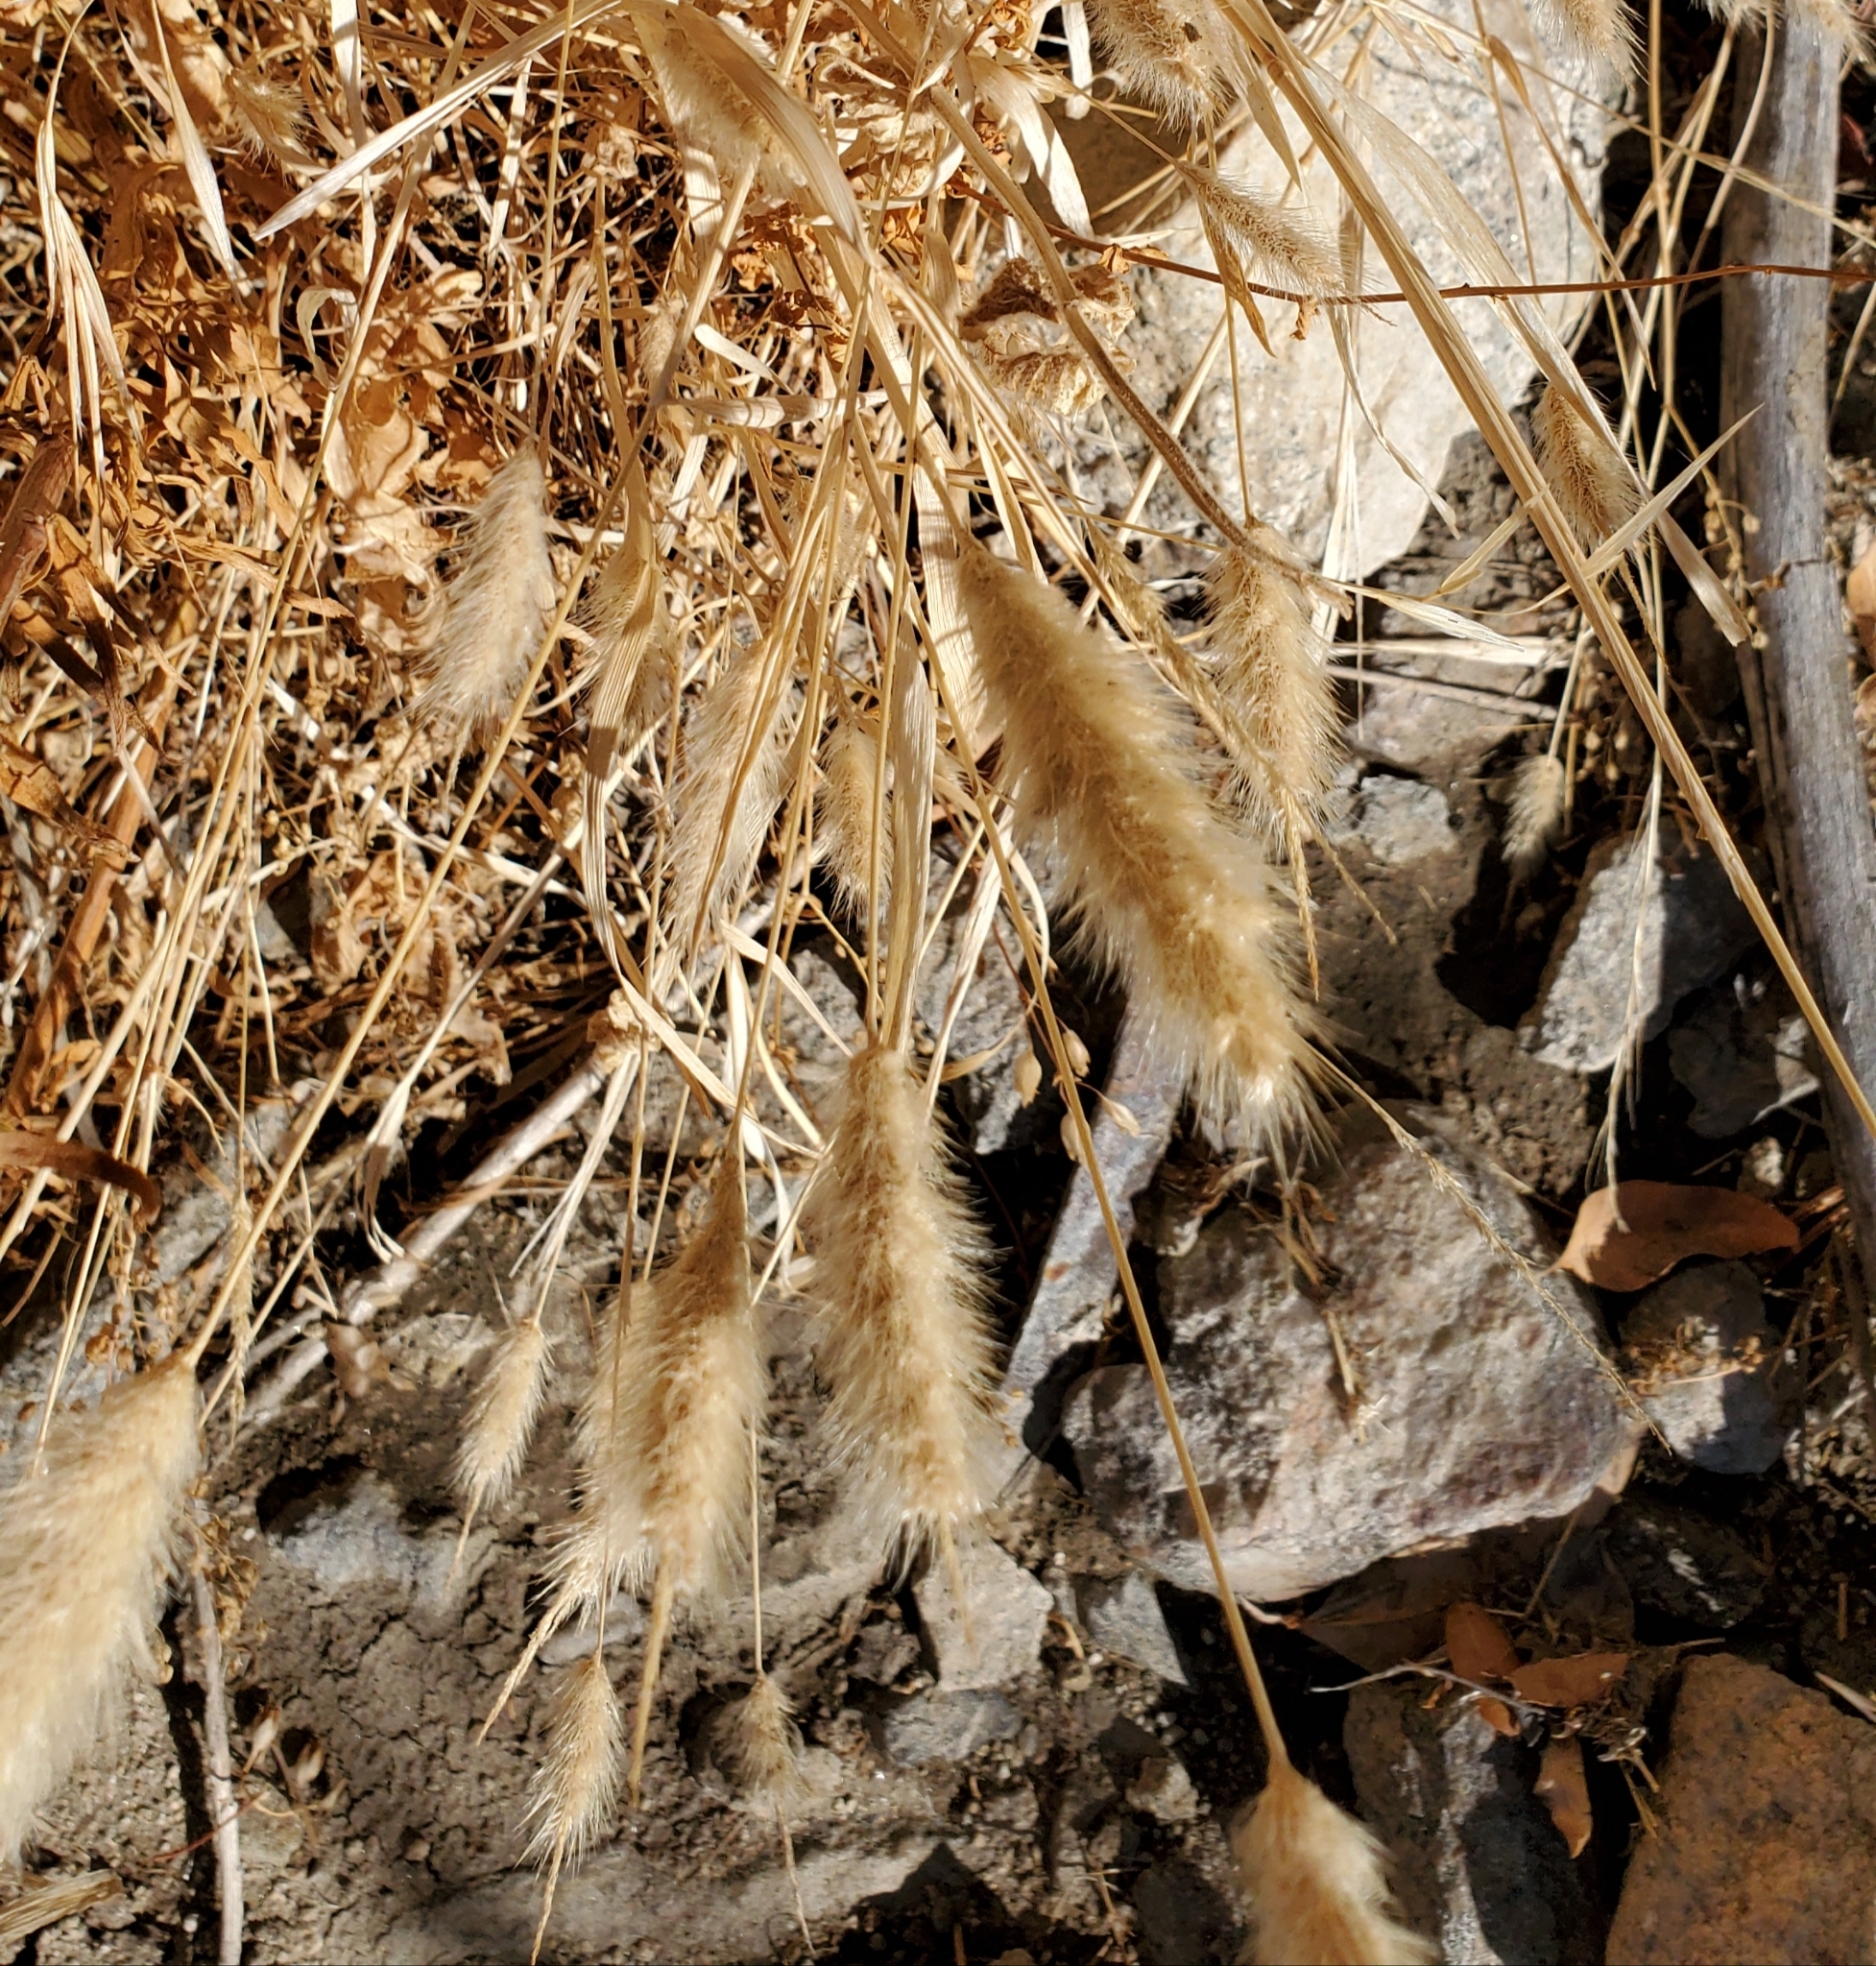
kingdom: Plantae
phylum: Tracheophyta
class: Liliopsida
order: Poales
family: Poaceae
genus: Polypogon
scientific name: Polypogon monspeliensis
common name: Annual rabbitsfoot grass
